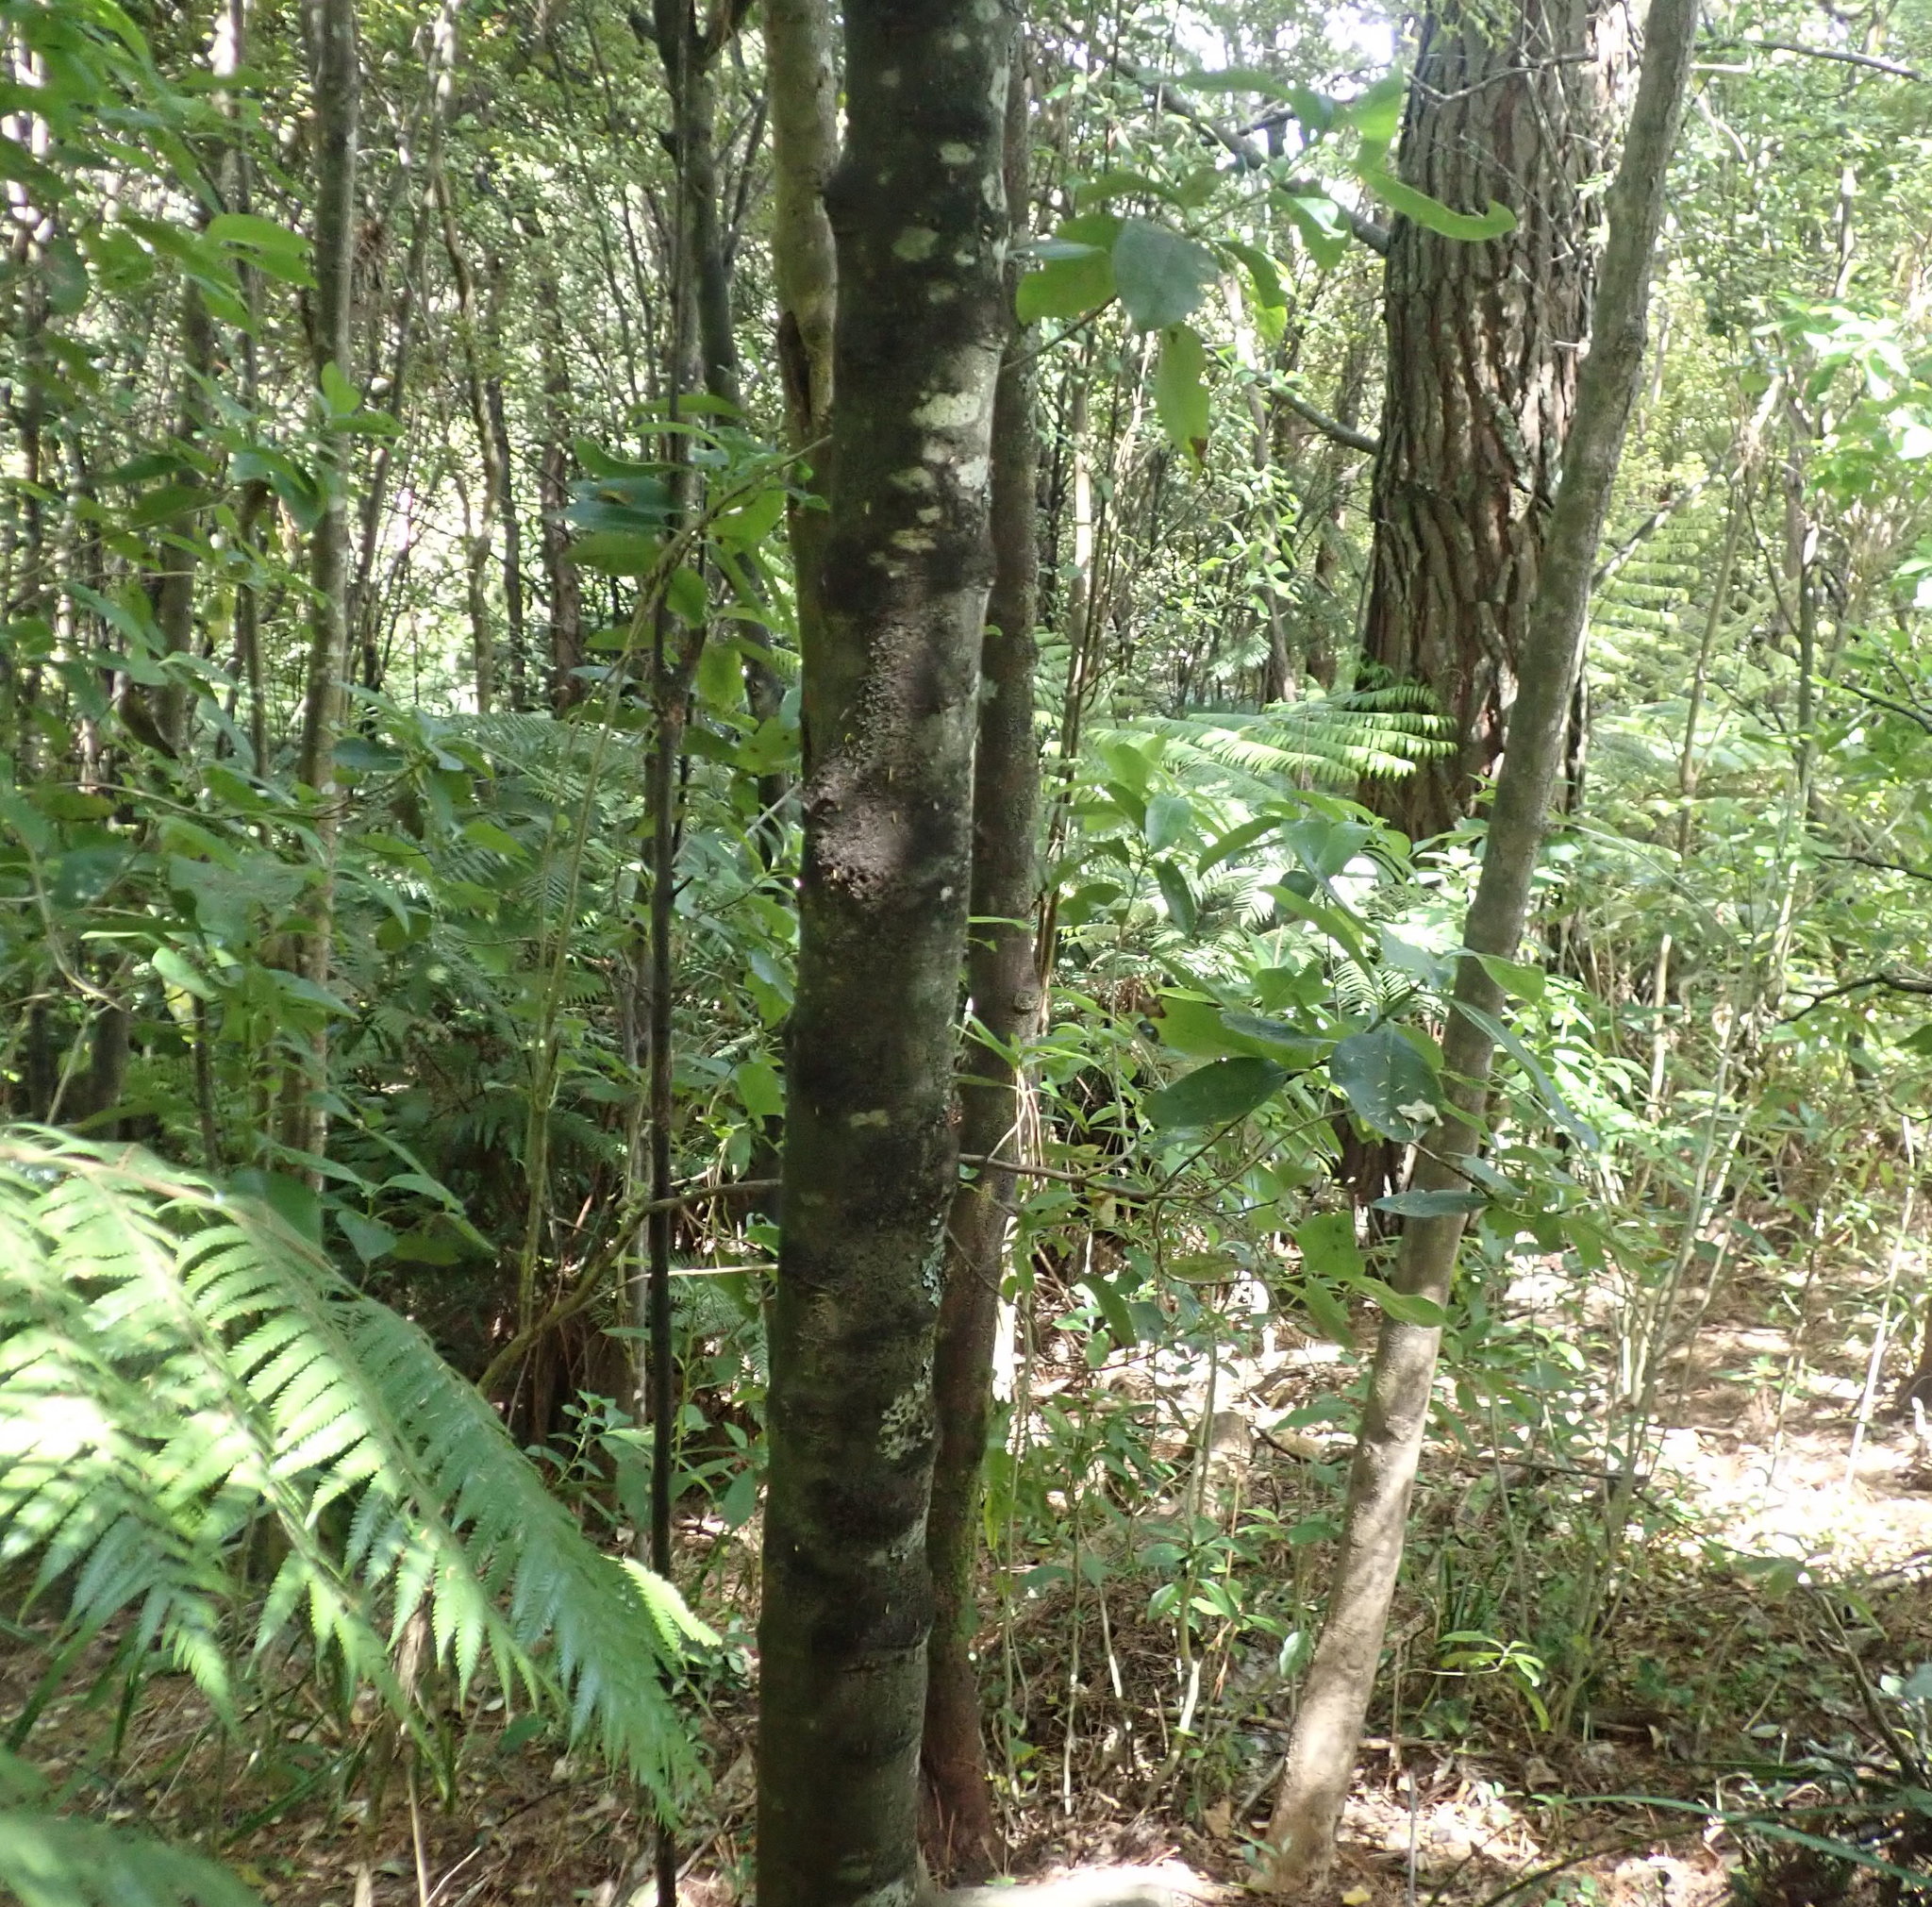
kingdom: Plantae
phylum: Tracheophyta
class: Magnoliopsida
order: Malpighiales
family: Violaceae
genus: Melicytus
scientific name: Melicytus ramiflorus
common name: Mahoe
